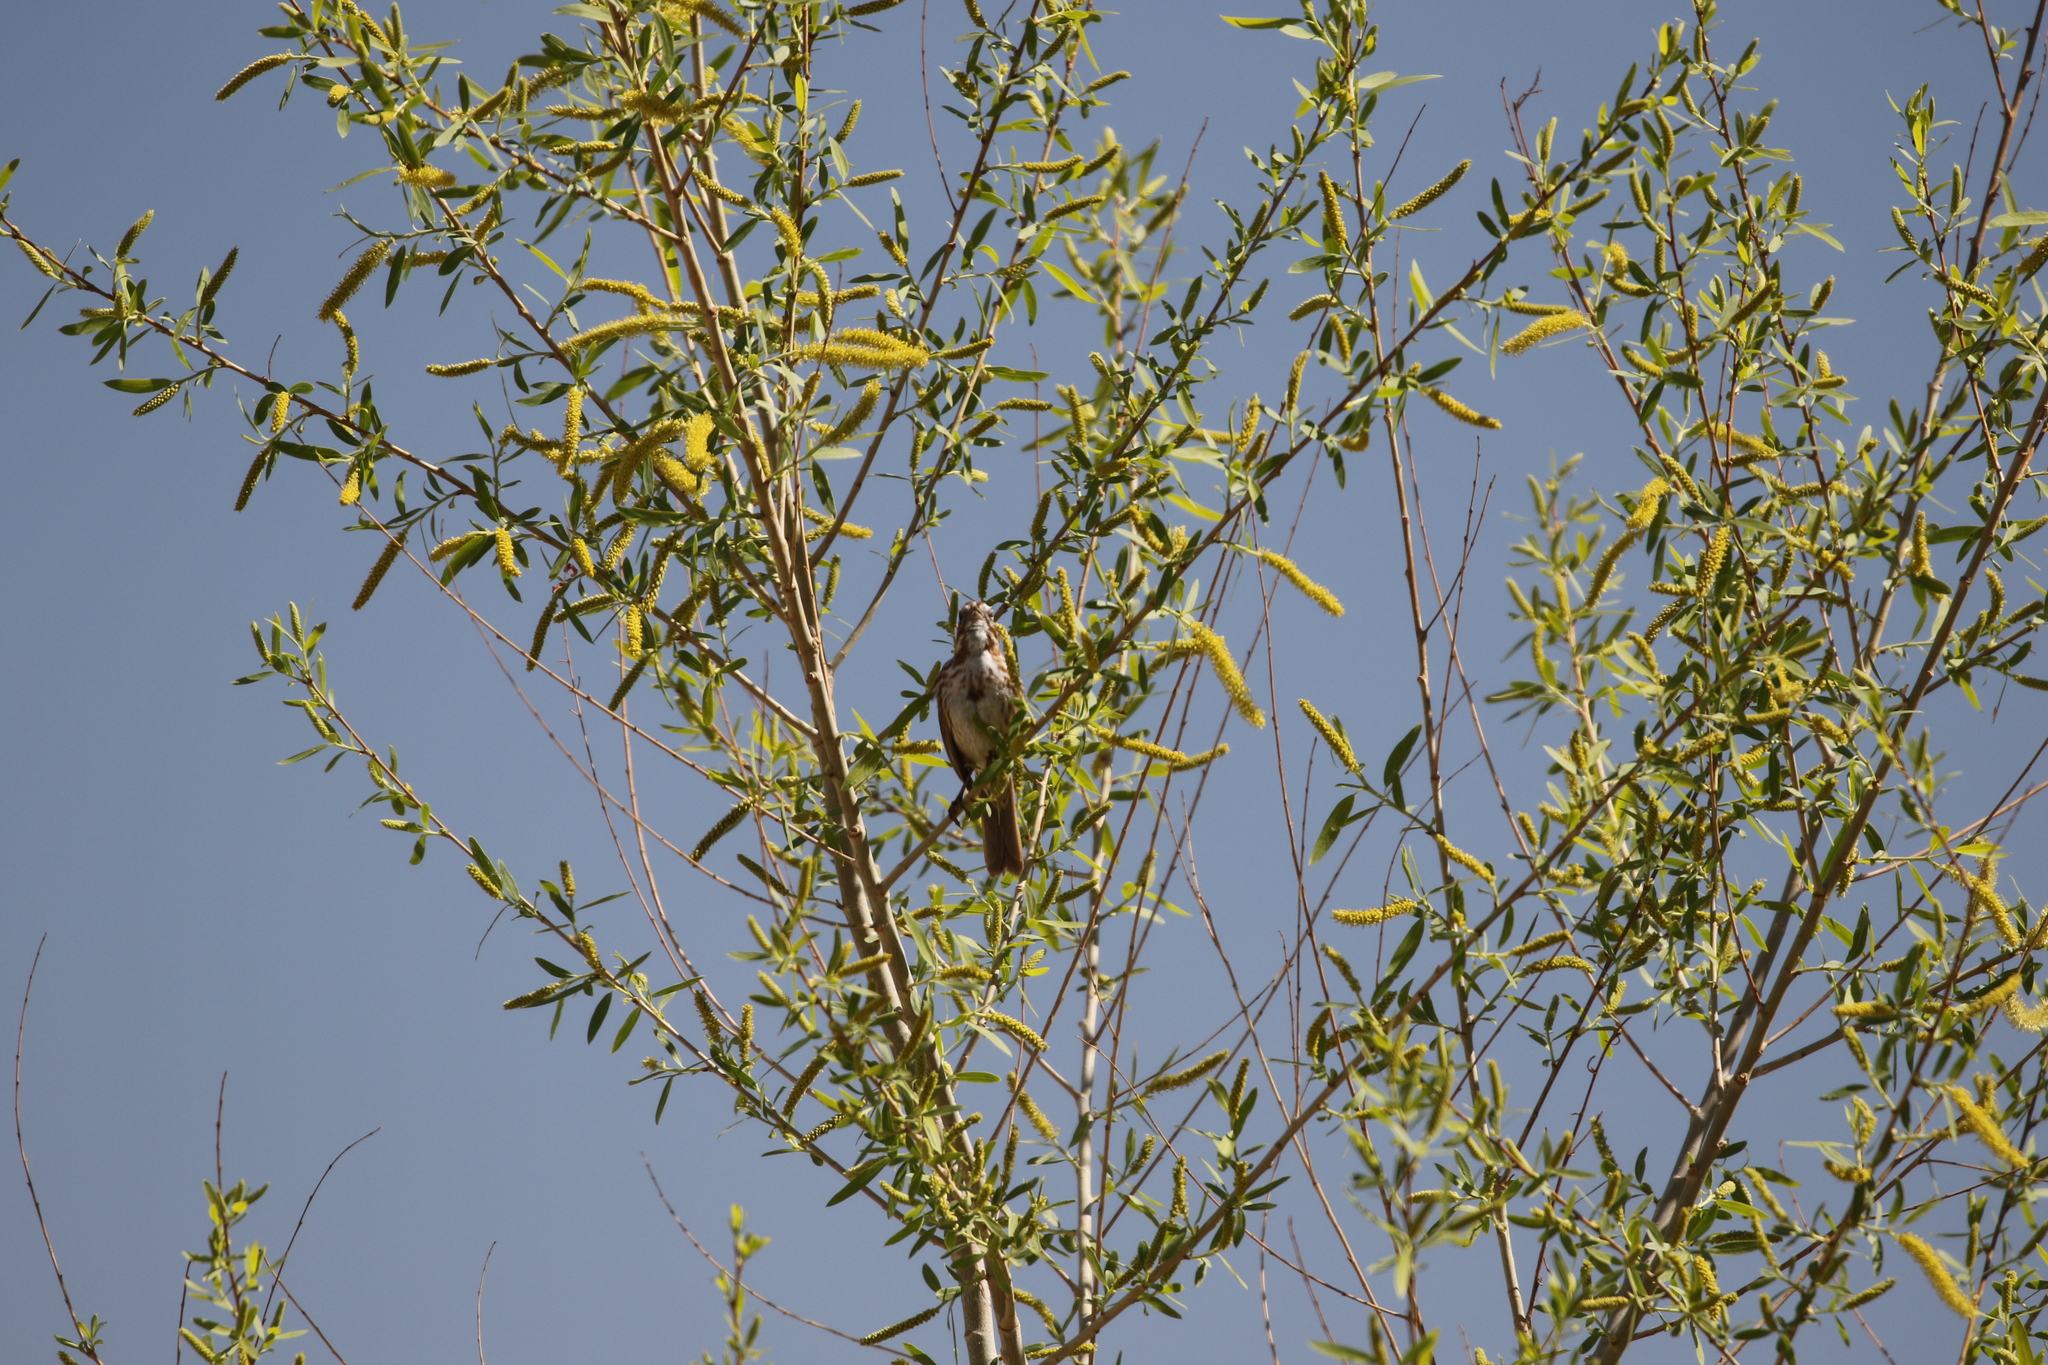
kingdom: Animalia
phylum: Chordata
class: Aves
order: Passeriformes
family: Passerellidae
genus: Melospiza
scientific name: Melospiza melodia
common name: Song sparrow
